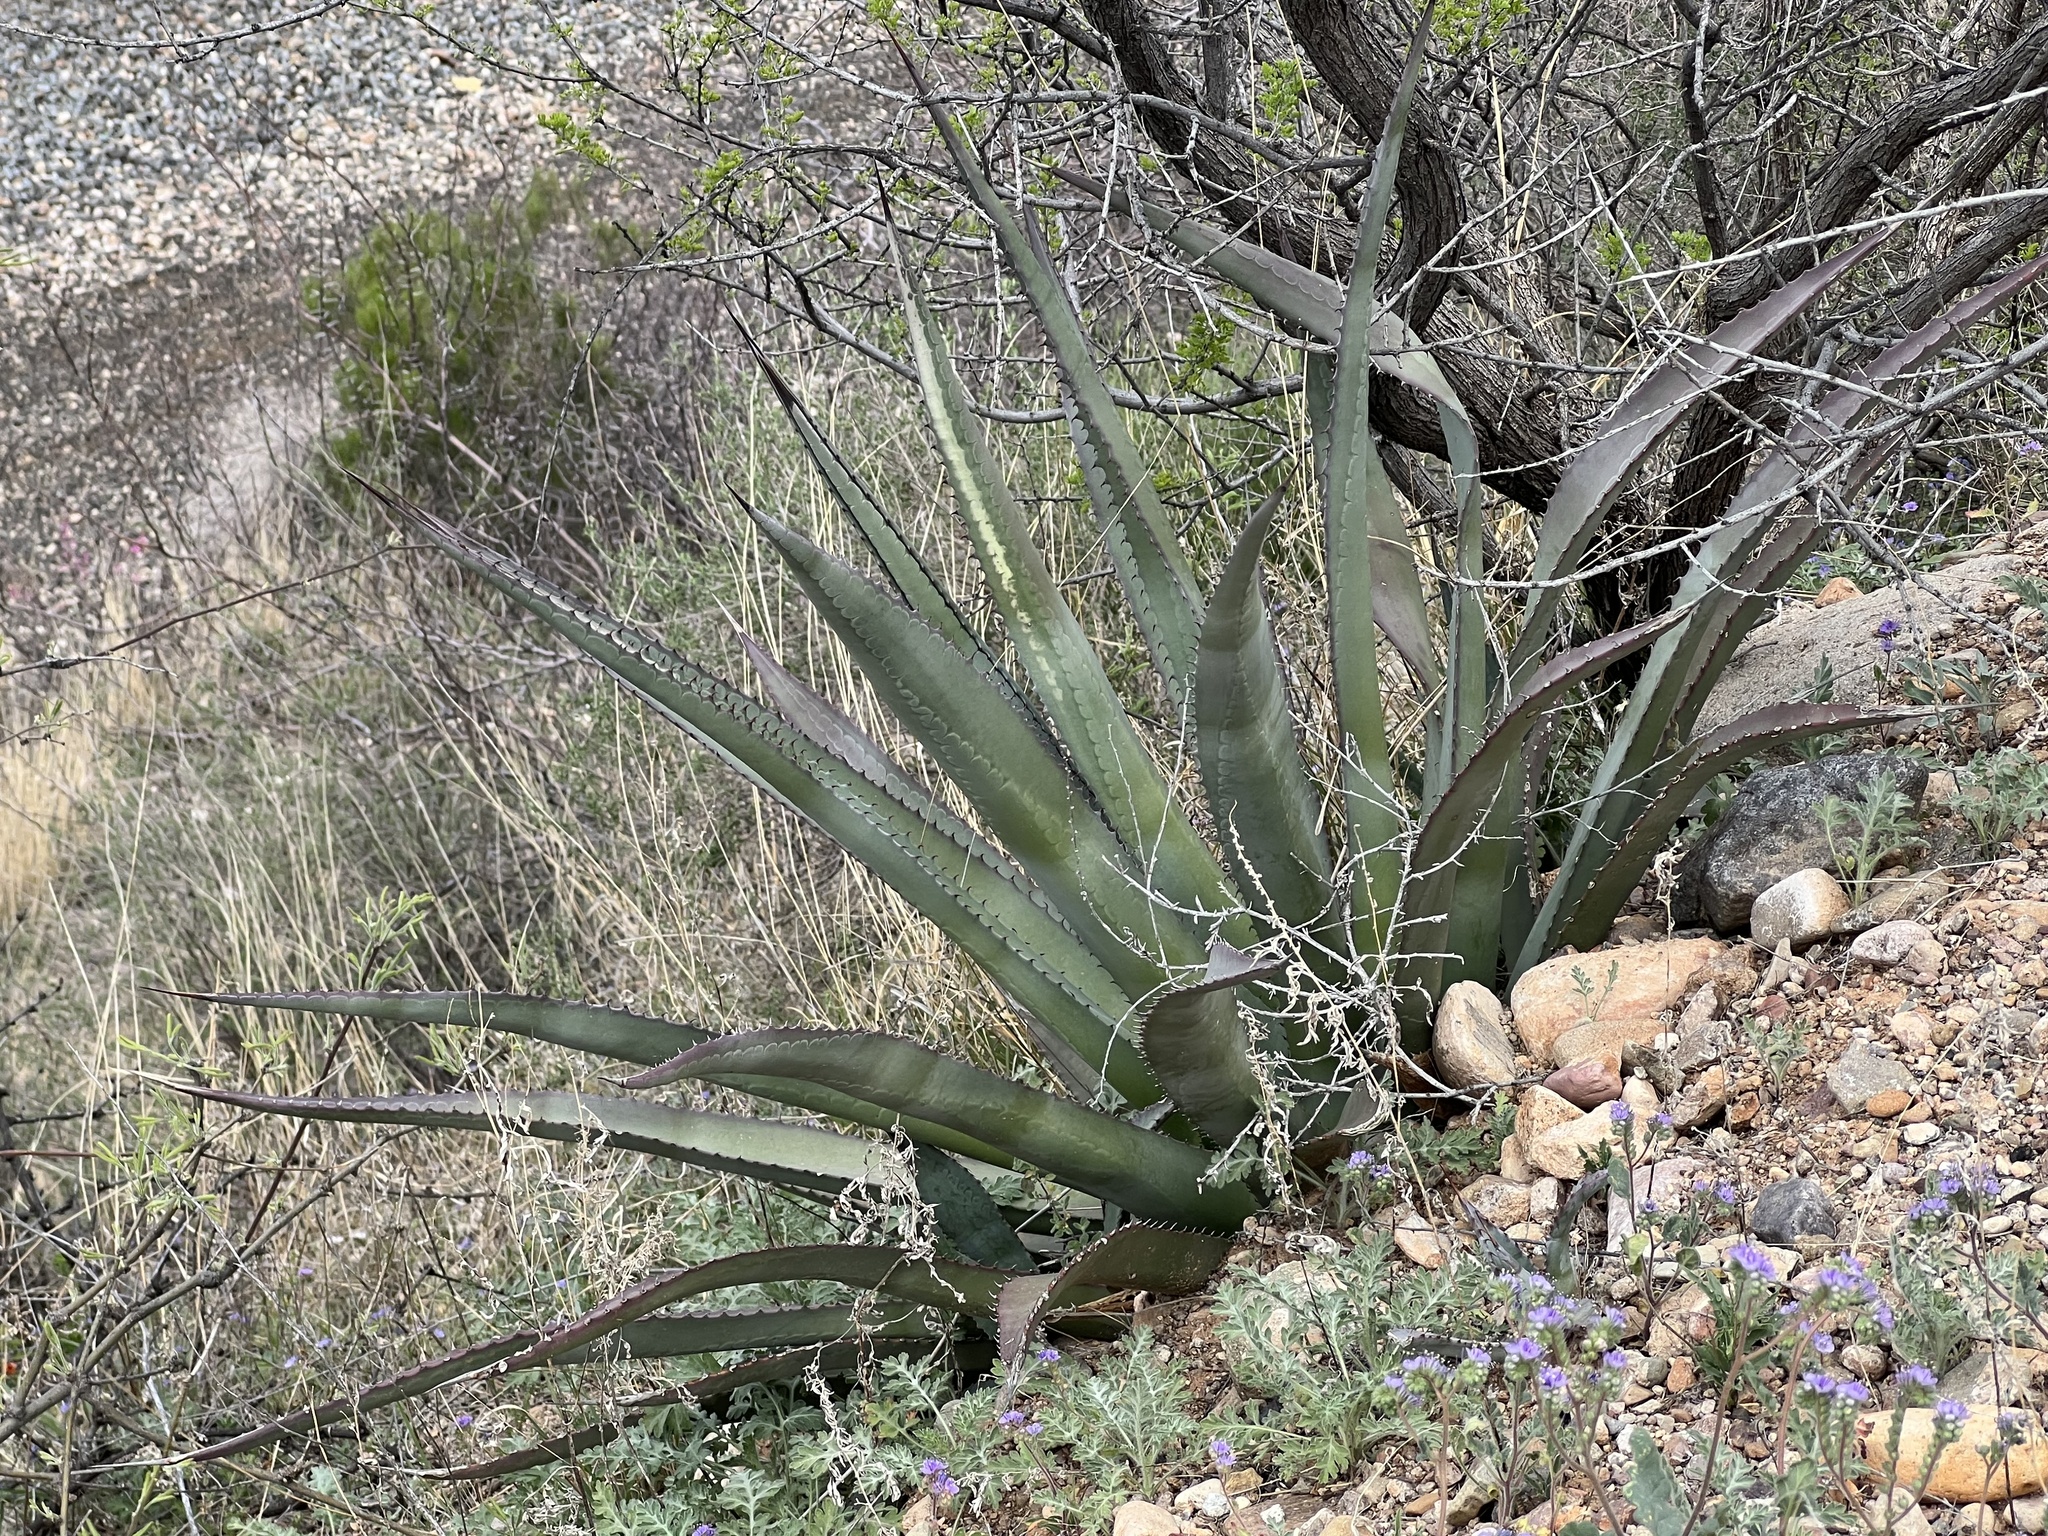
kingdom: Plantae
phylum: Tracheophyta
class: Liliopsida
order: Asparagales
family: Asparagaceae
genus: Agave
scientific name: Agave palmeri
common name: Palmer agave
